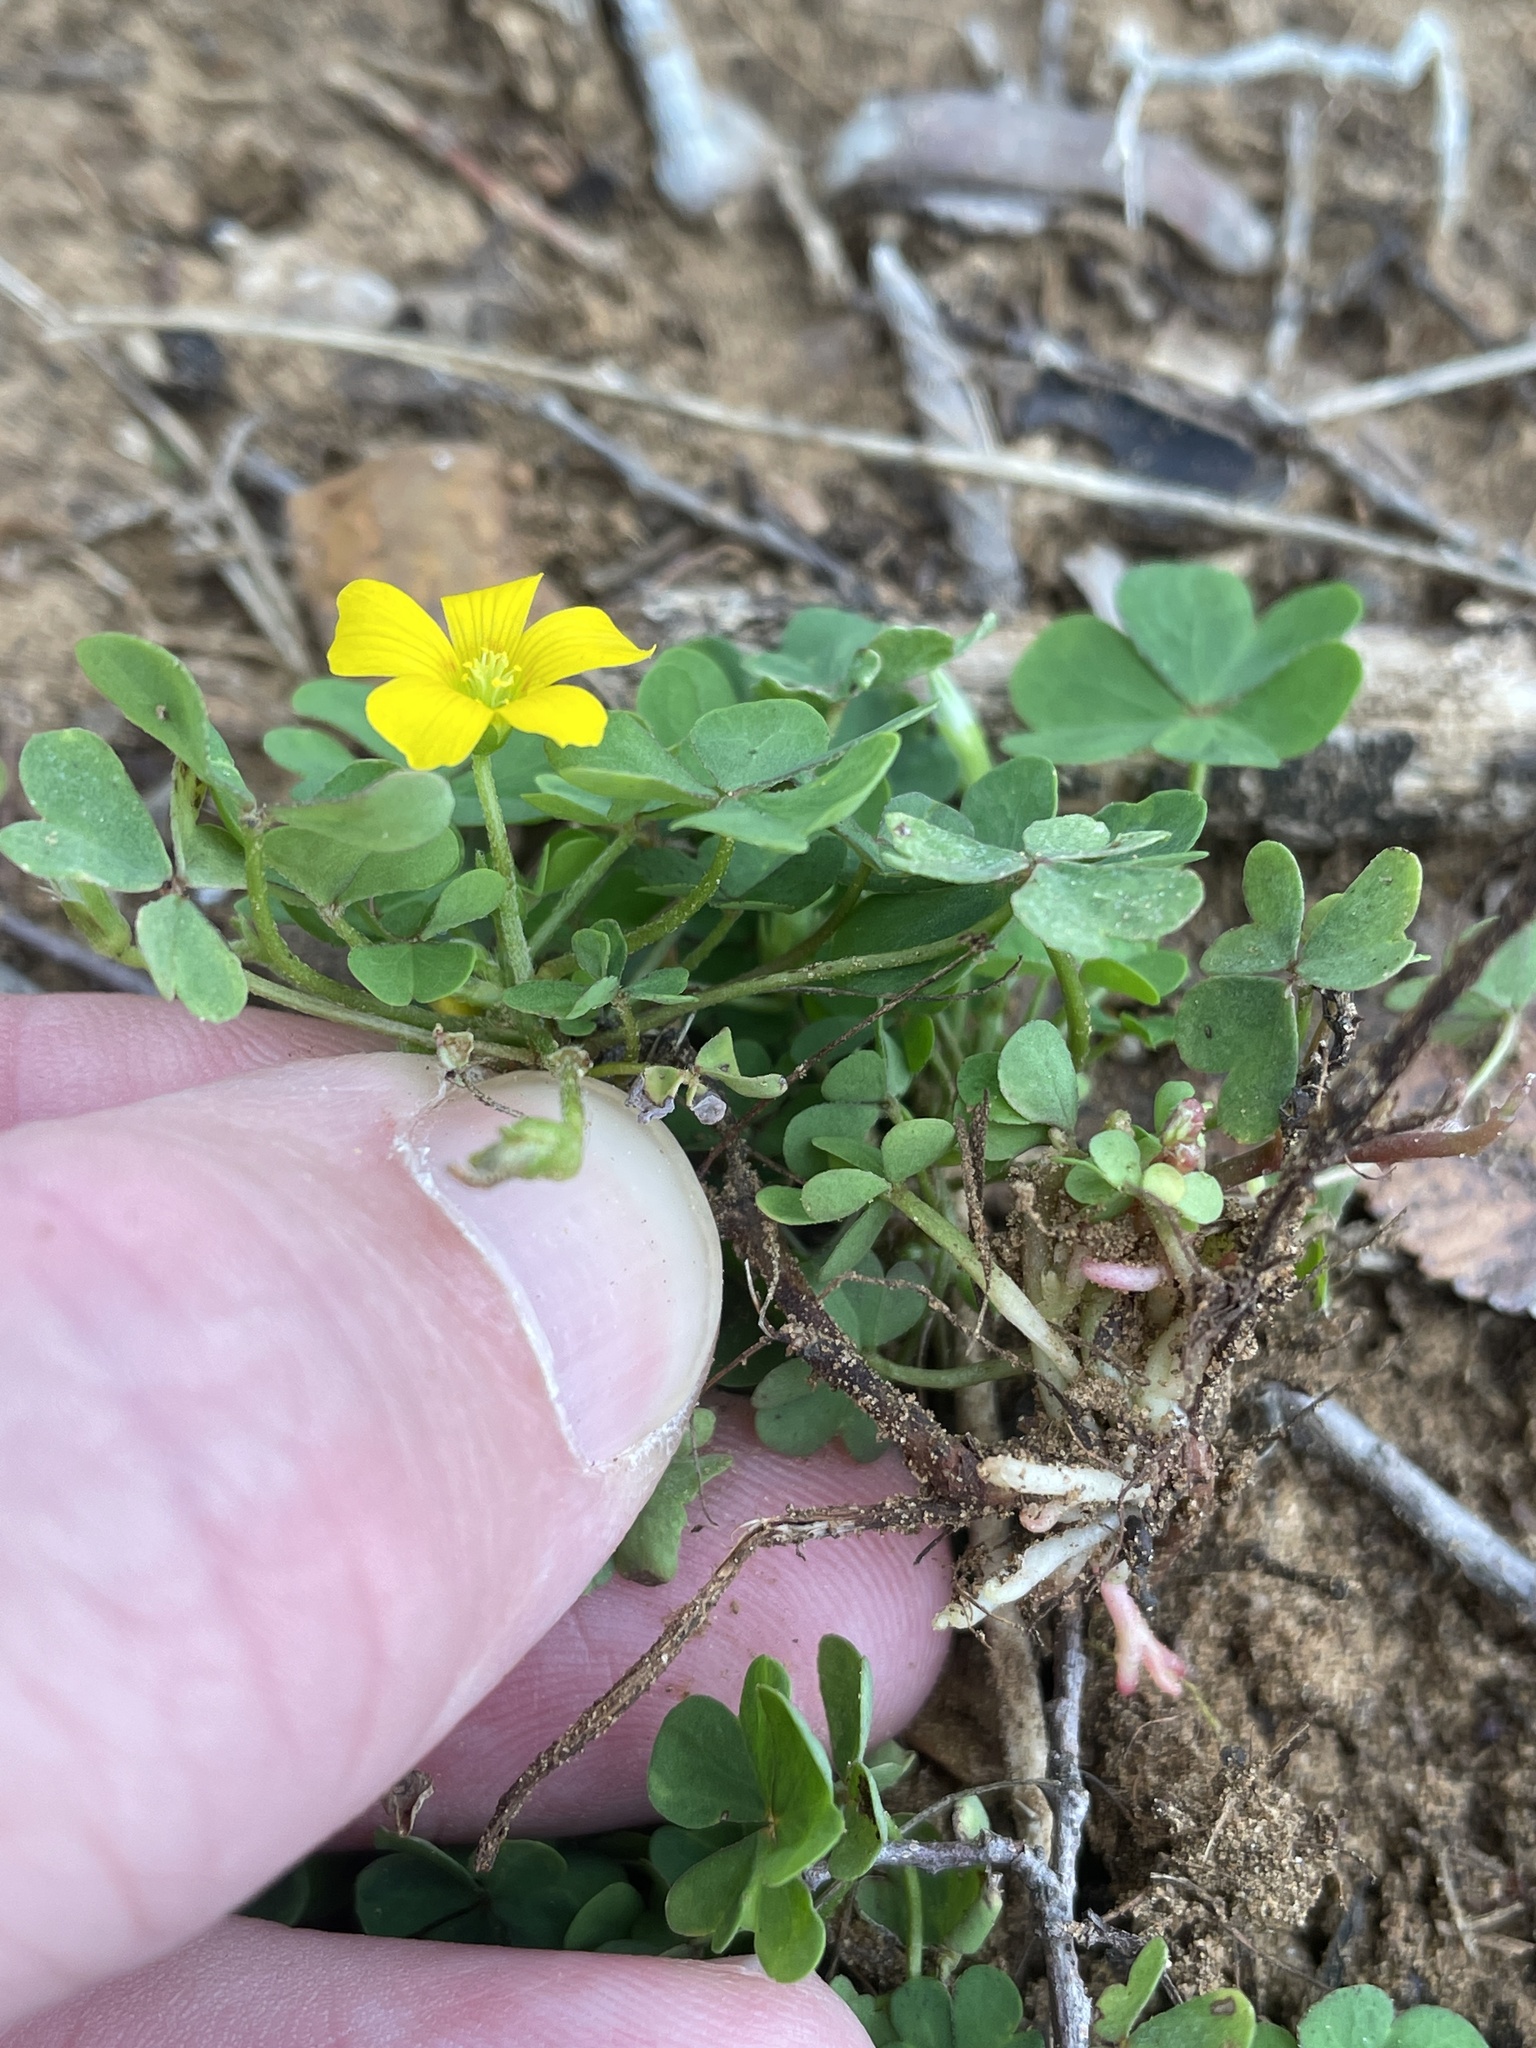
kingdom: Plantae
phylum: Tracheophyta
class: Magnoliopsida
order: Oxalidales
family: Oxalidaceae
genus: Oxalis
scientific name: Oxalis dillenii
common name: Sussex yellow-sorrel
